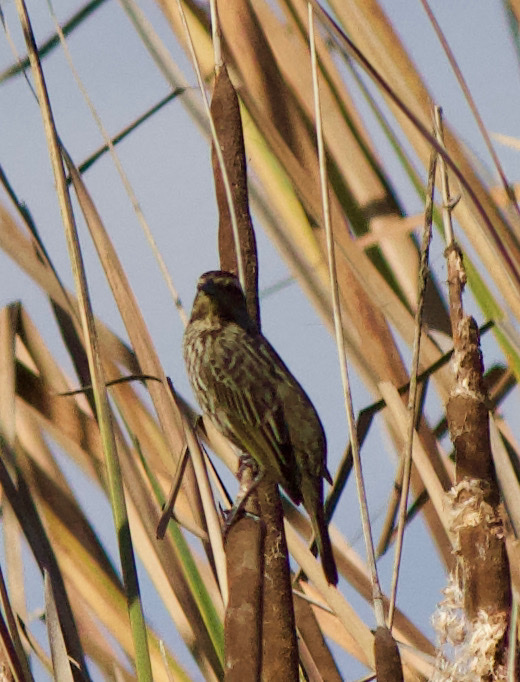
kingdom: Animalia
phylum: Chordata
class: Aves
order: Passeriformes
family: Icteridae
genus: Agelasticus
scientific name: Agelasticus thilius
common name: Yellow-winged blackbird
